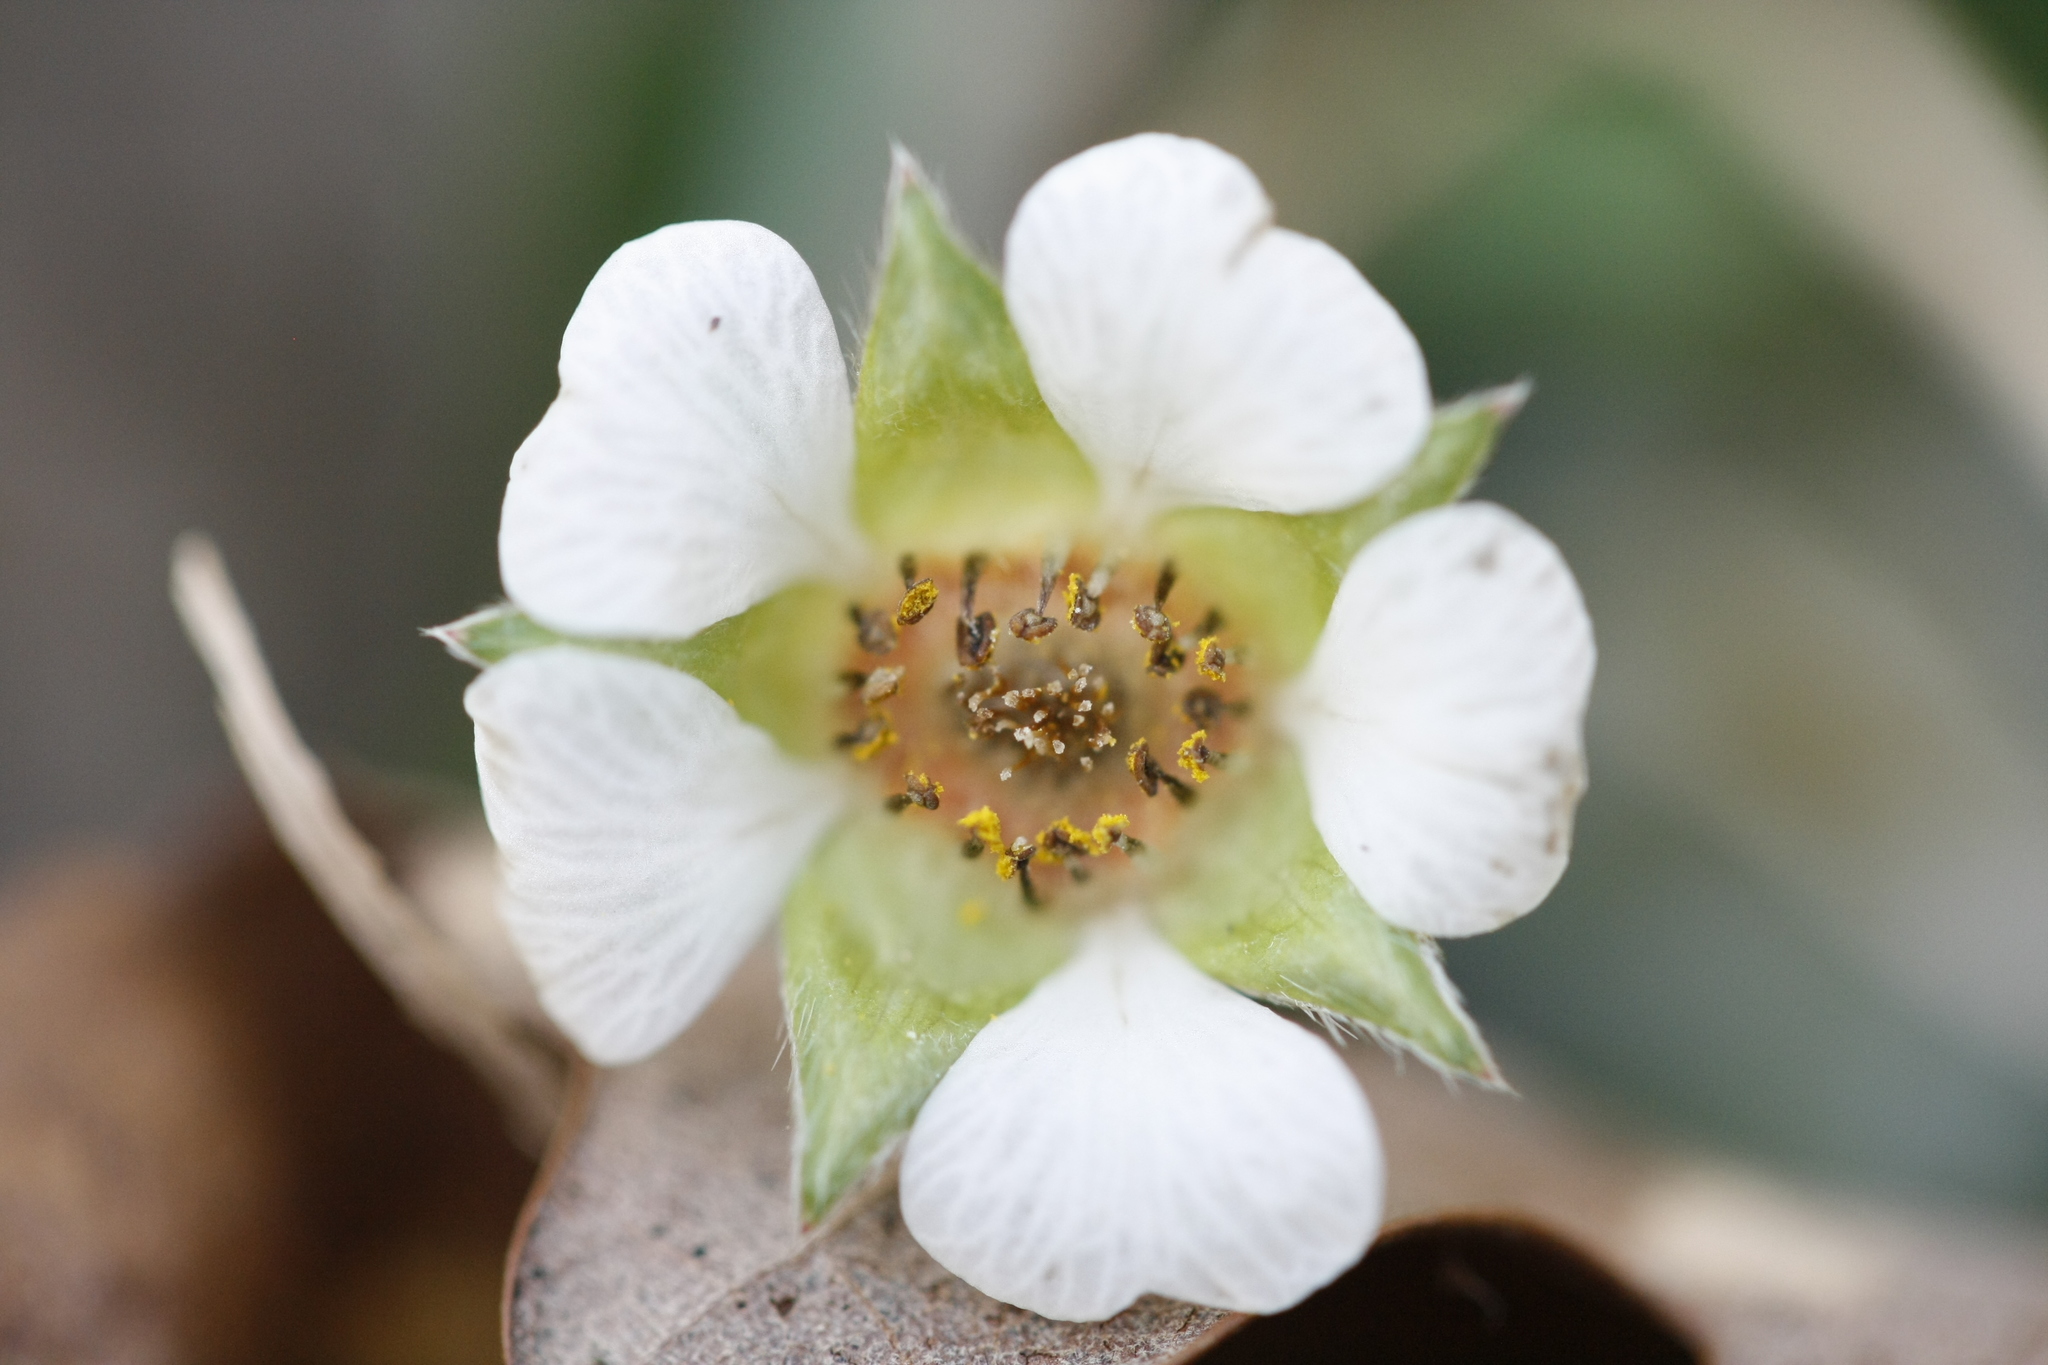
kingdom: Plantae
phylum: Tracheophyta
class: Magnoliopsida
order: Rosales
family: Rosaceae
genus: Potentilla
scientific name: Potentilla sterilis
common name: Barren strawberry
